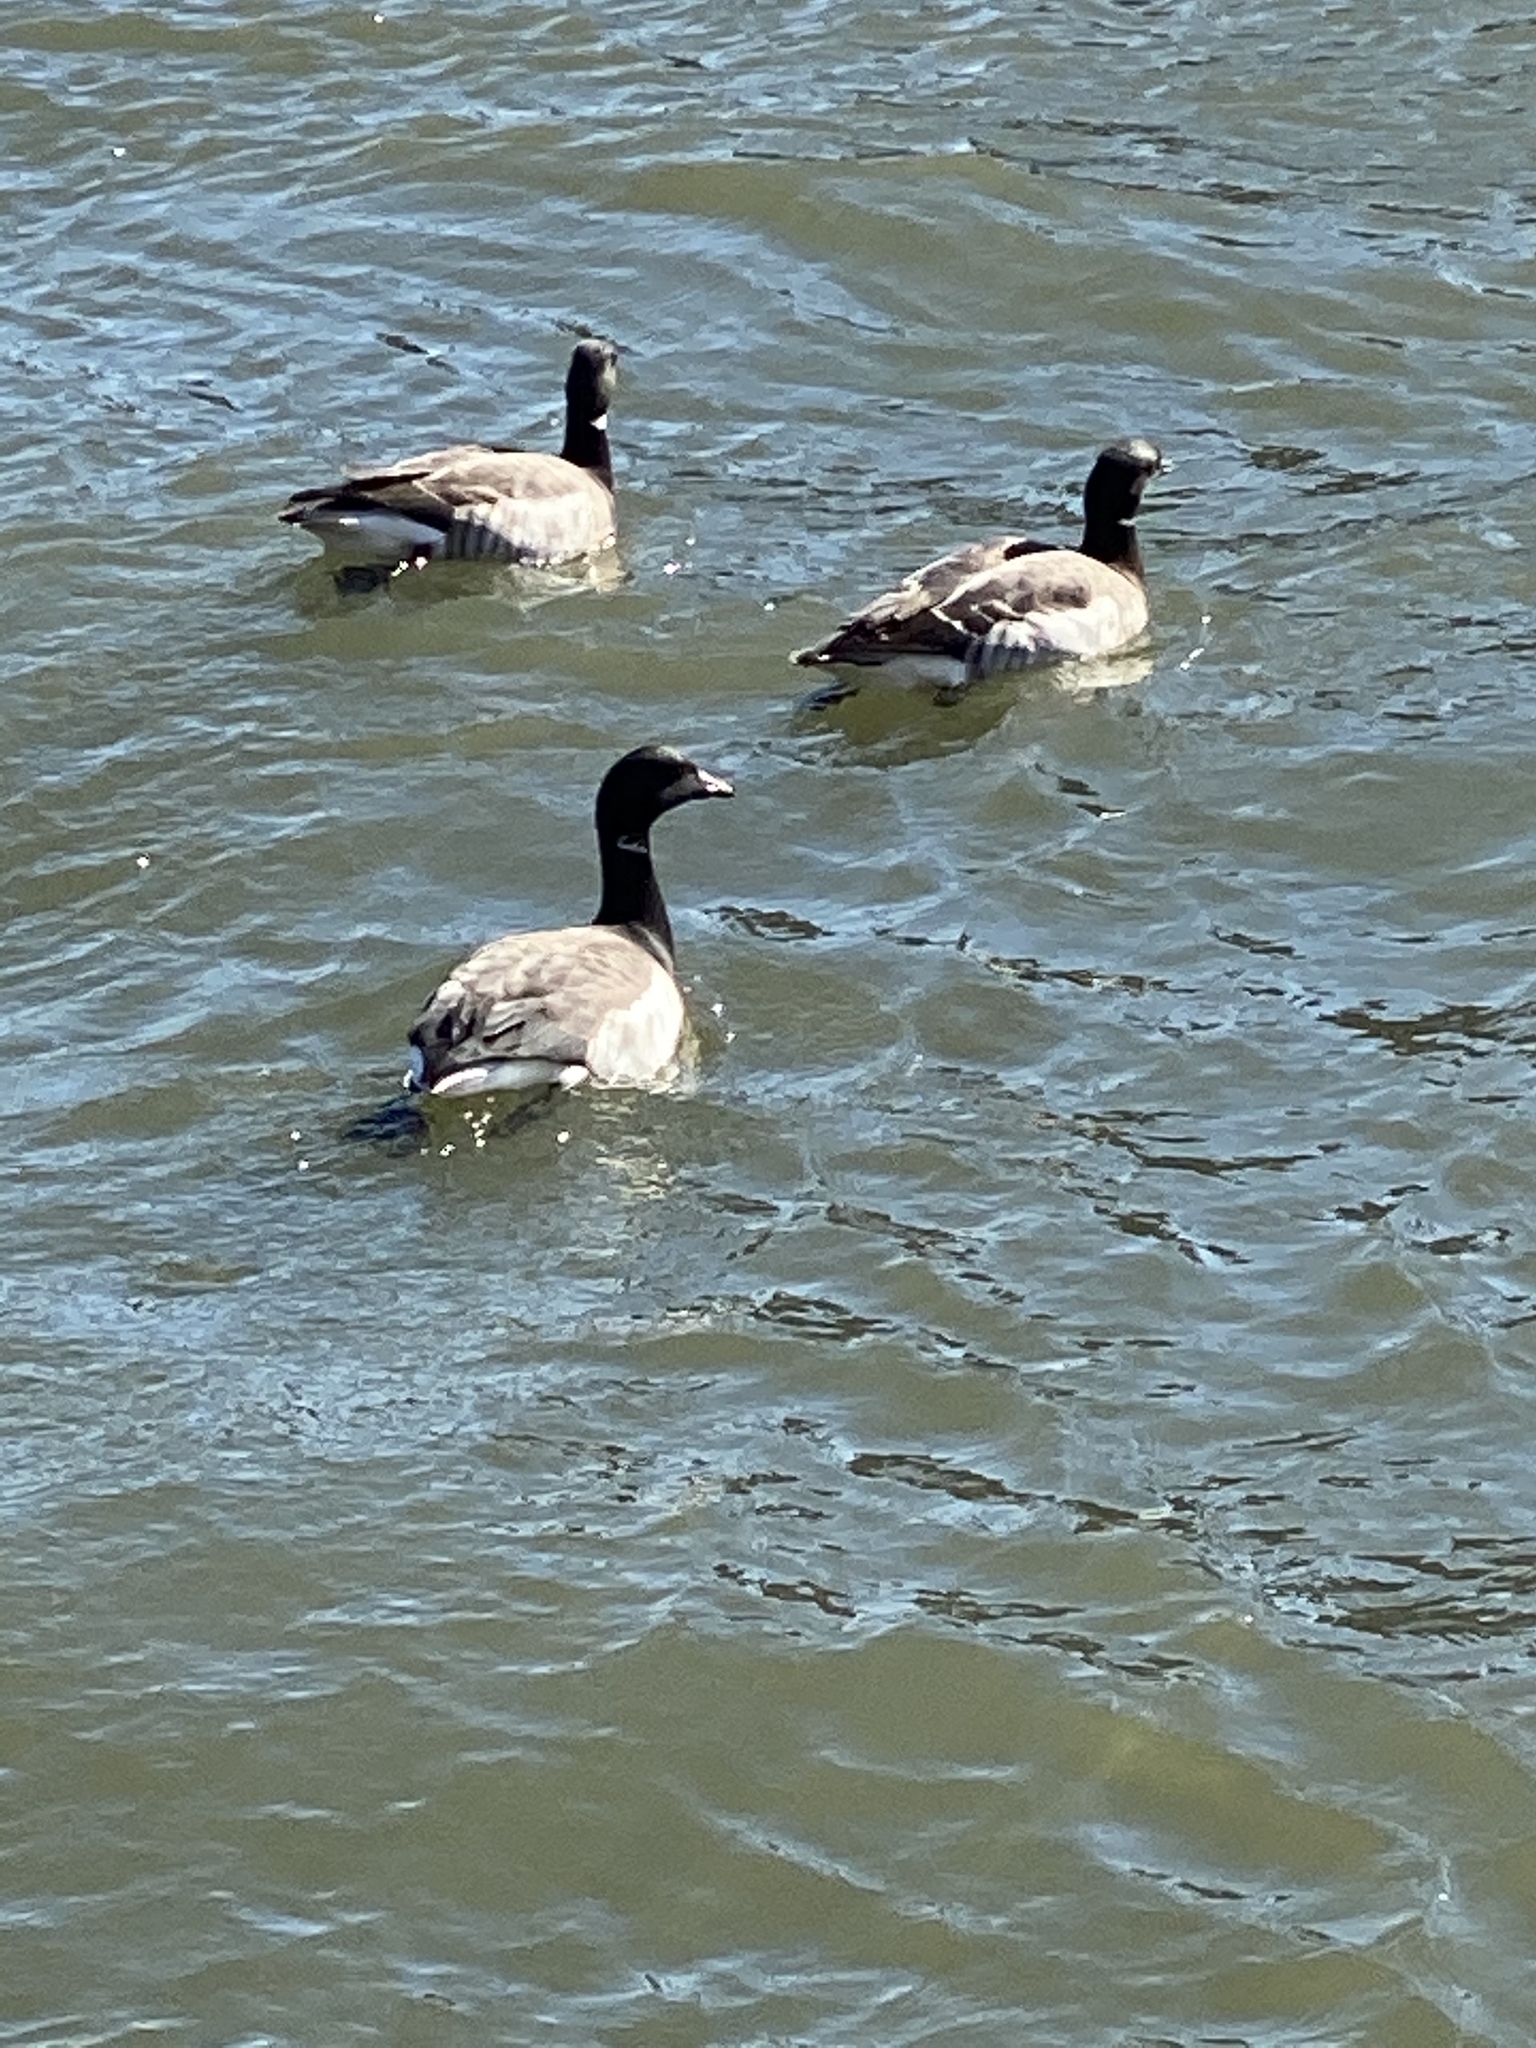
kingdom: Animalia
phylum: Chordata
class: Aves
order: Anseriformes
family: Anatidae
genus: Branta
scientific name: Branta bernicla
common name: Brant goose
